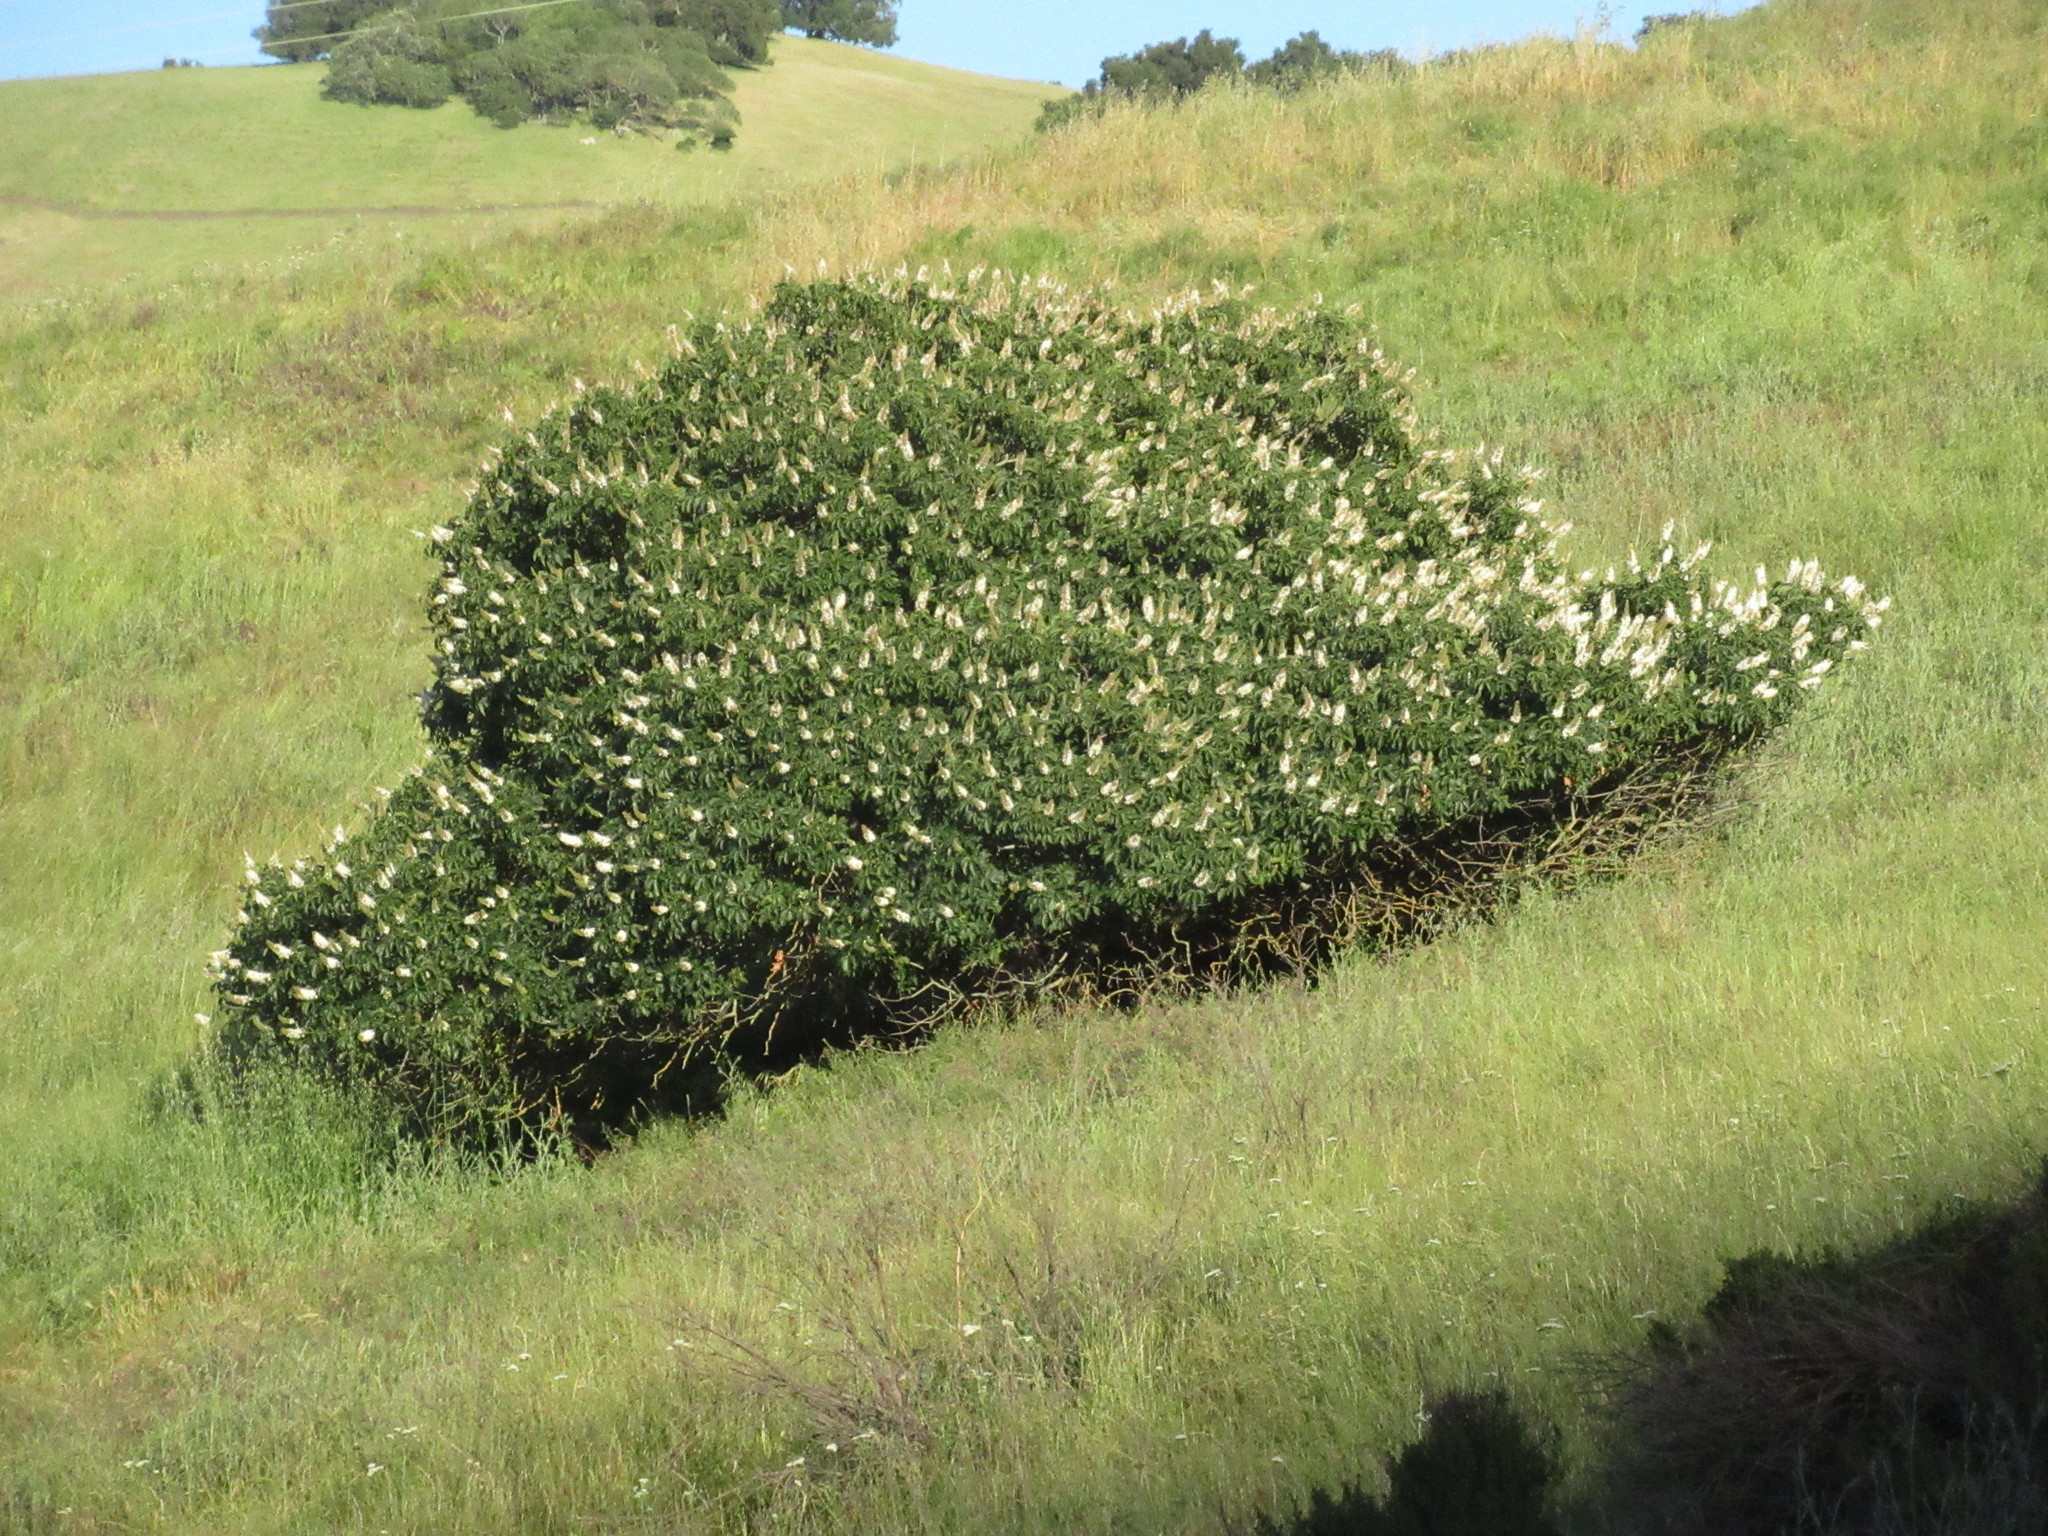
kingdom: Plantae
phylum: Tracheophyta
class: Magnoliopsida
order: Sapindales
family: Sapindaceae
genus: Aesculus
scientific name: Aesculus californica
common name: California buckeye
